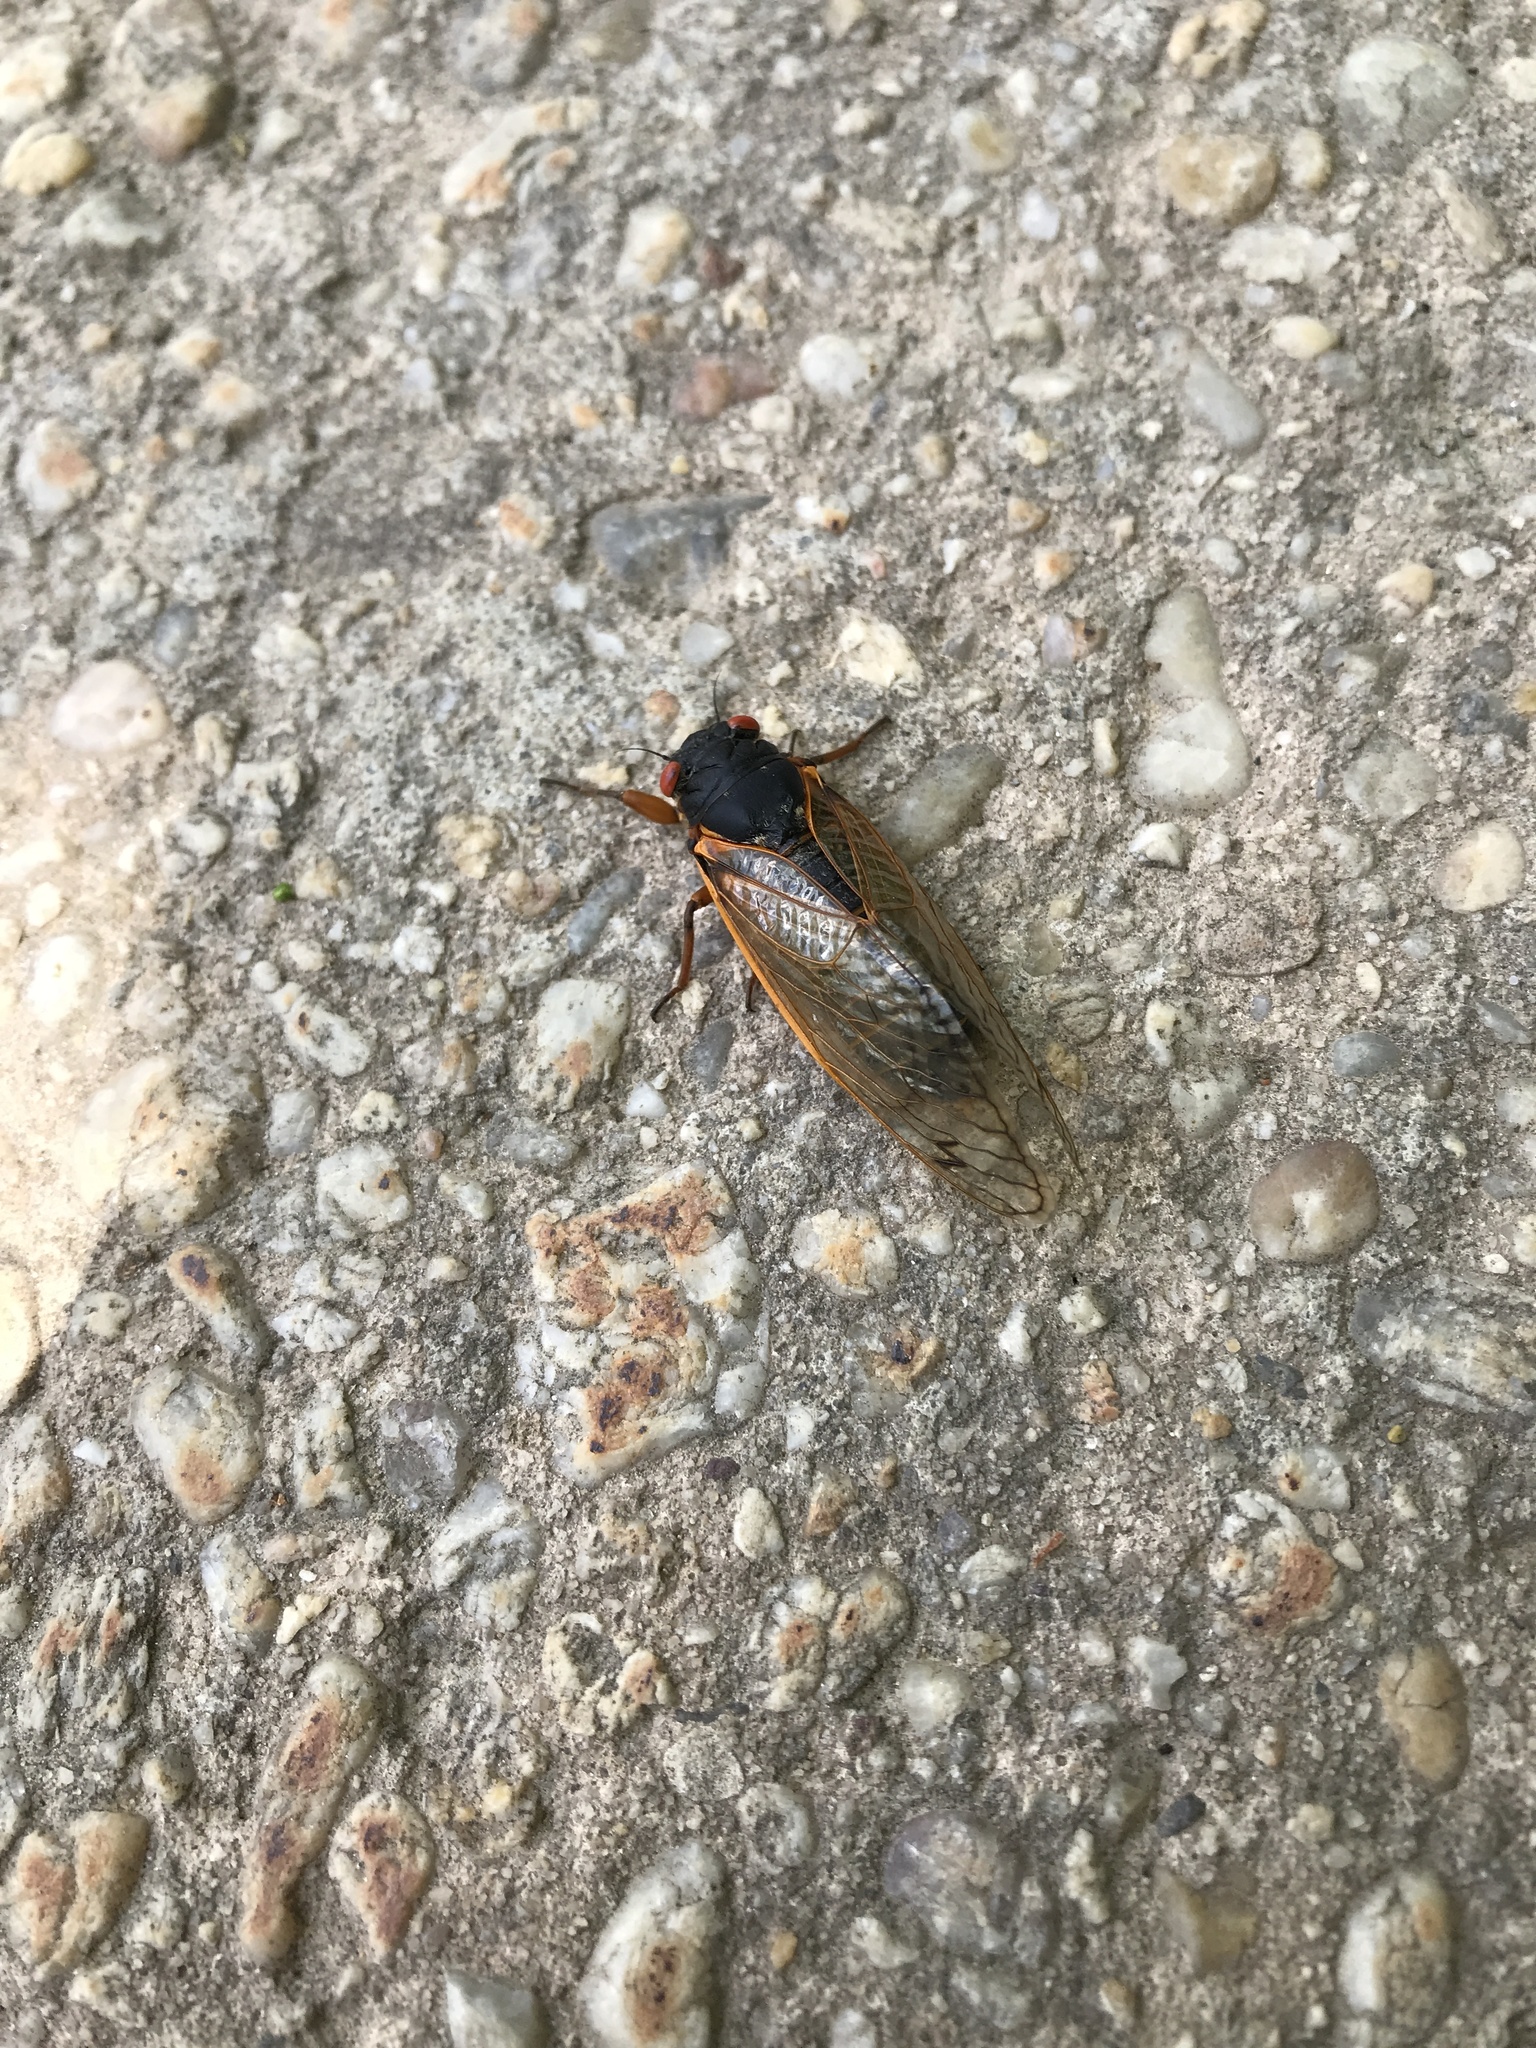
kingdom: Animalia
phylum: Arthropoda
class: Insecta
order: Hemiptera
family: Cicadidae
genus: Magicicada
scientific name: Magicicada
